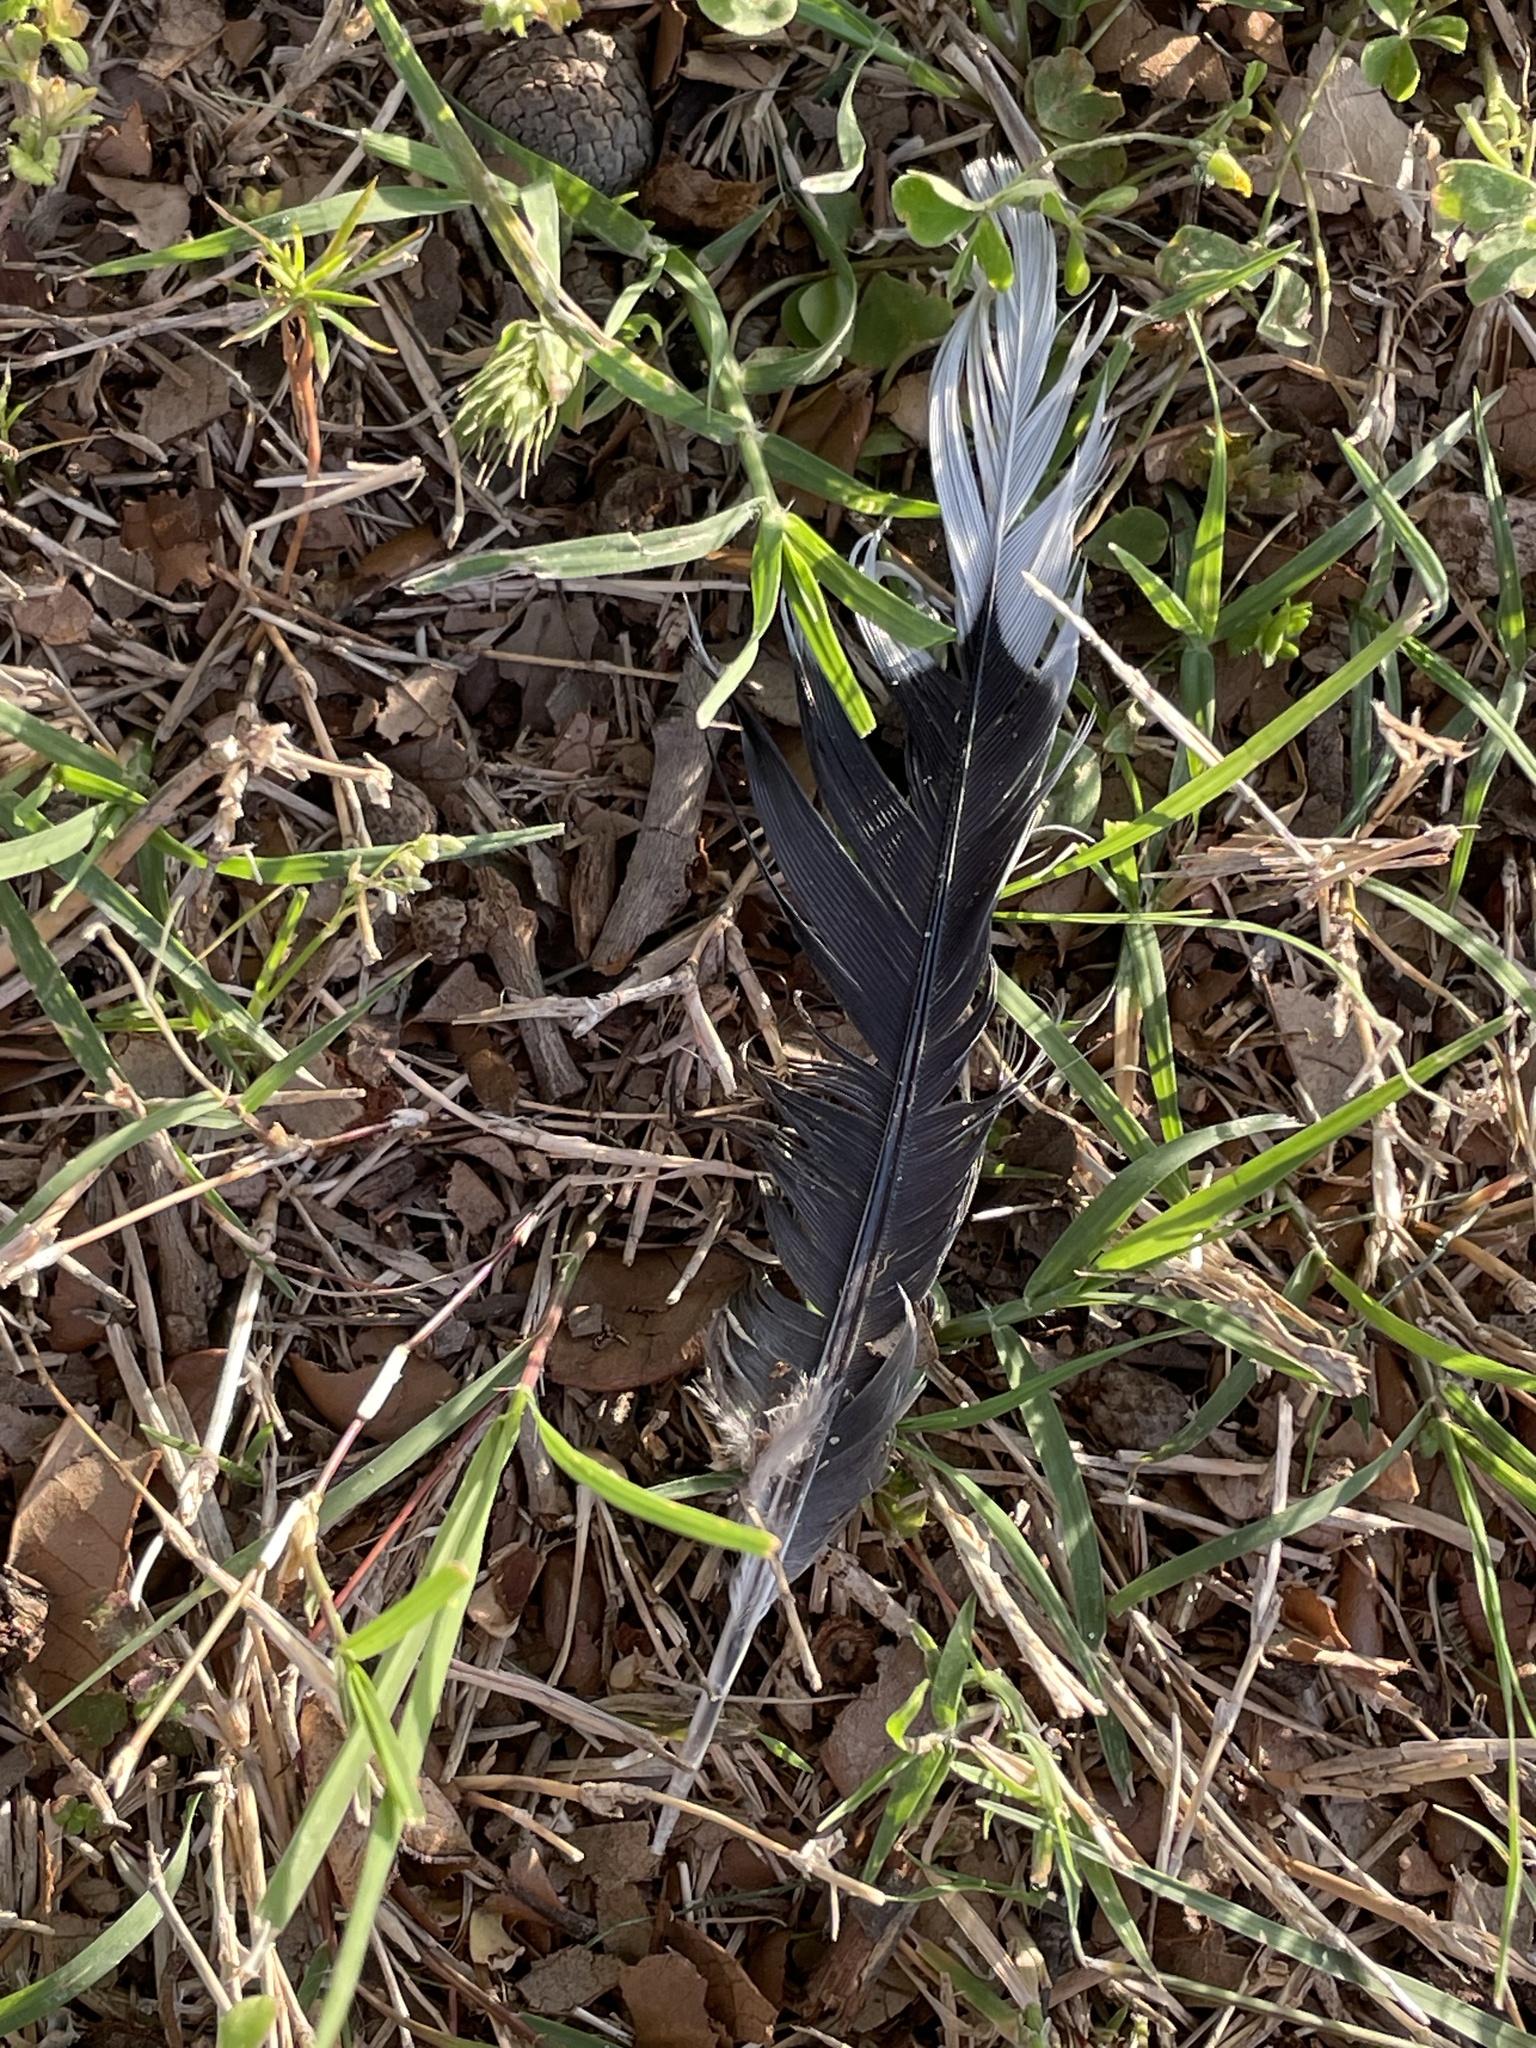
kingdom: Animalia
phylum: Chordata
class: Aves
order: Columbiformes
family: Columbidae
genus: Zenaida
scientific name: Zenaida macroura
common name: Mourning dove
